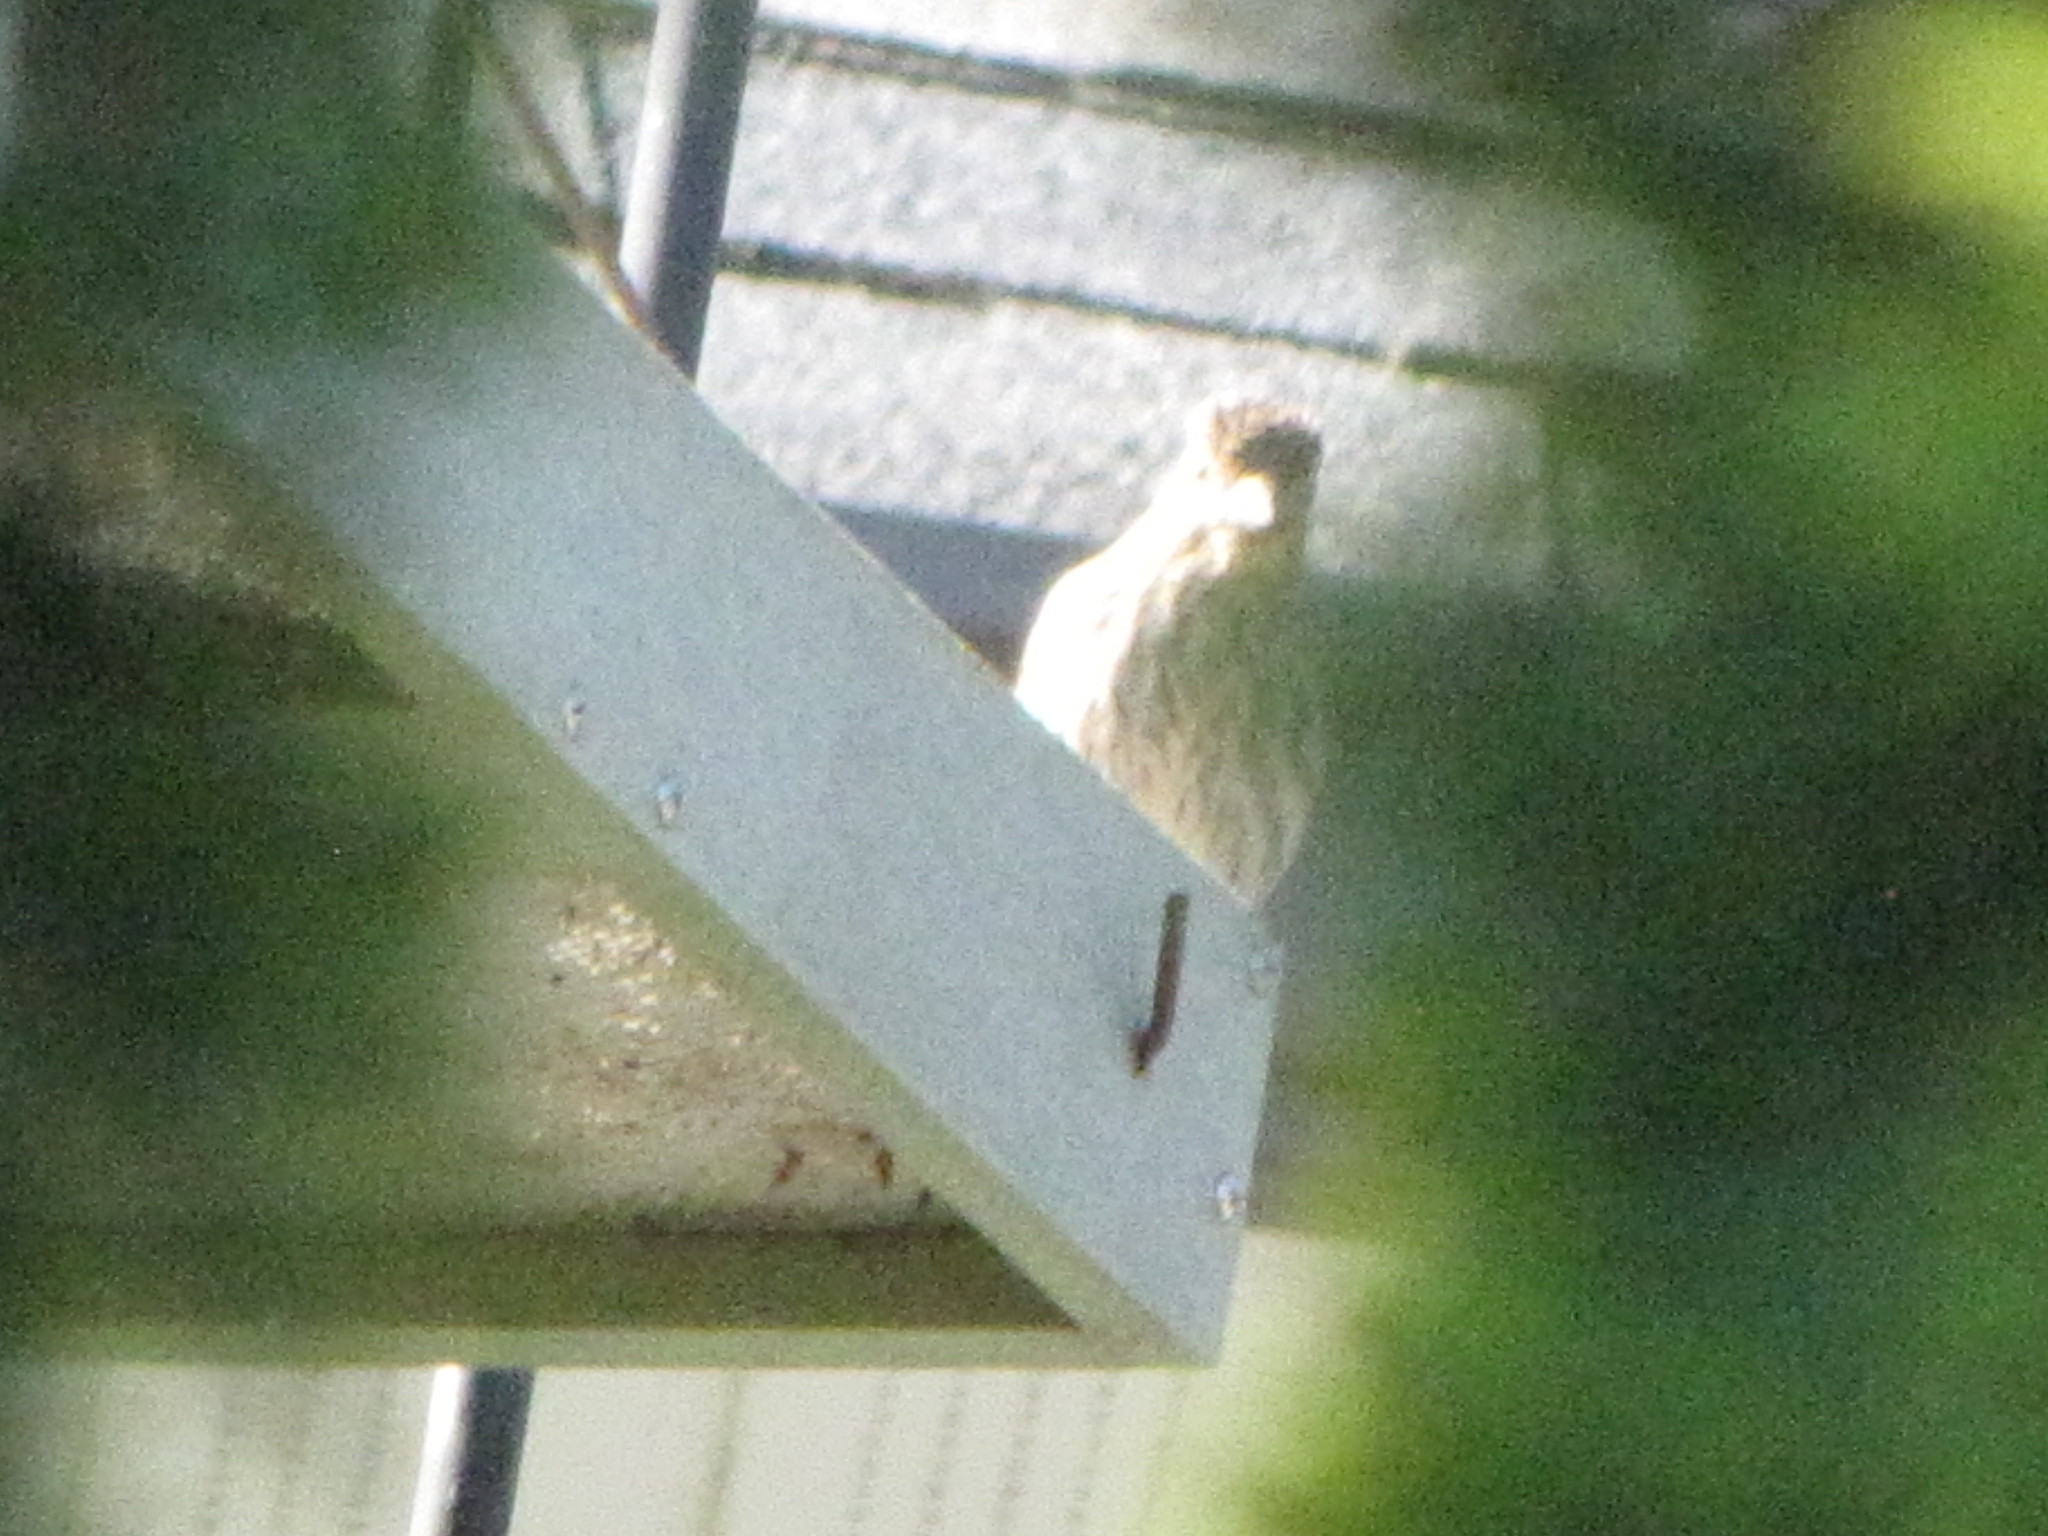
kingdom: Animalia
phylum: Chordata
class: Aves
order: Passeriformes
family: Fringillidae
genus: Haemorhous
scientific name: Haemorhous mexicanus
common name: House finch
